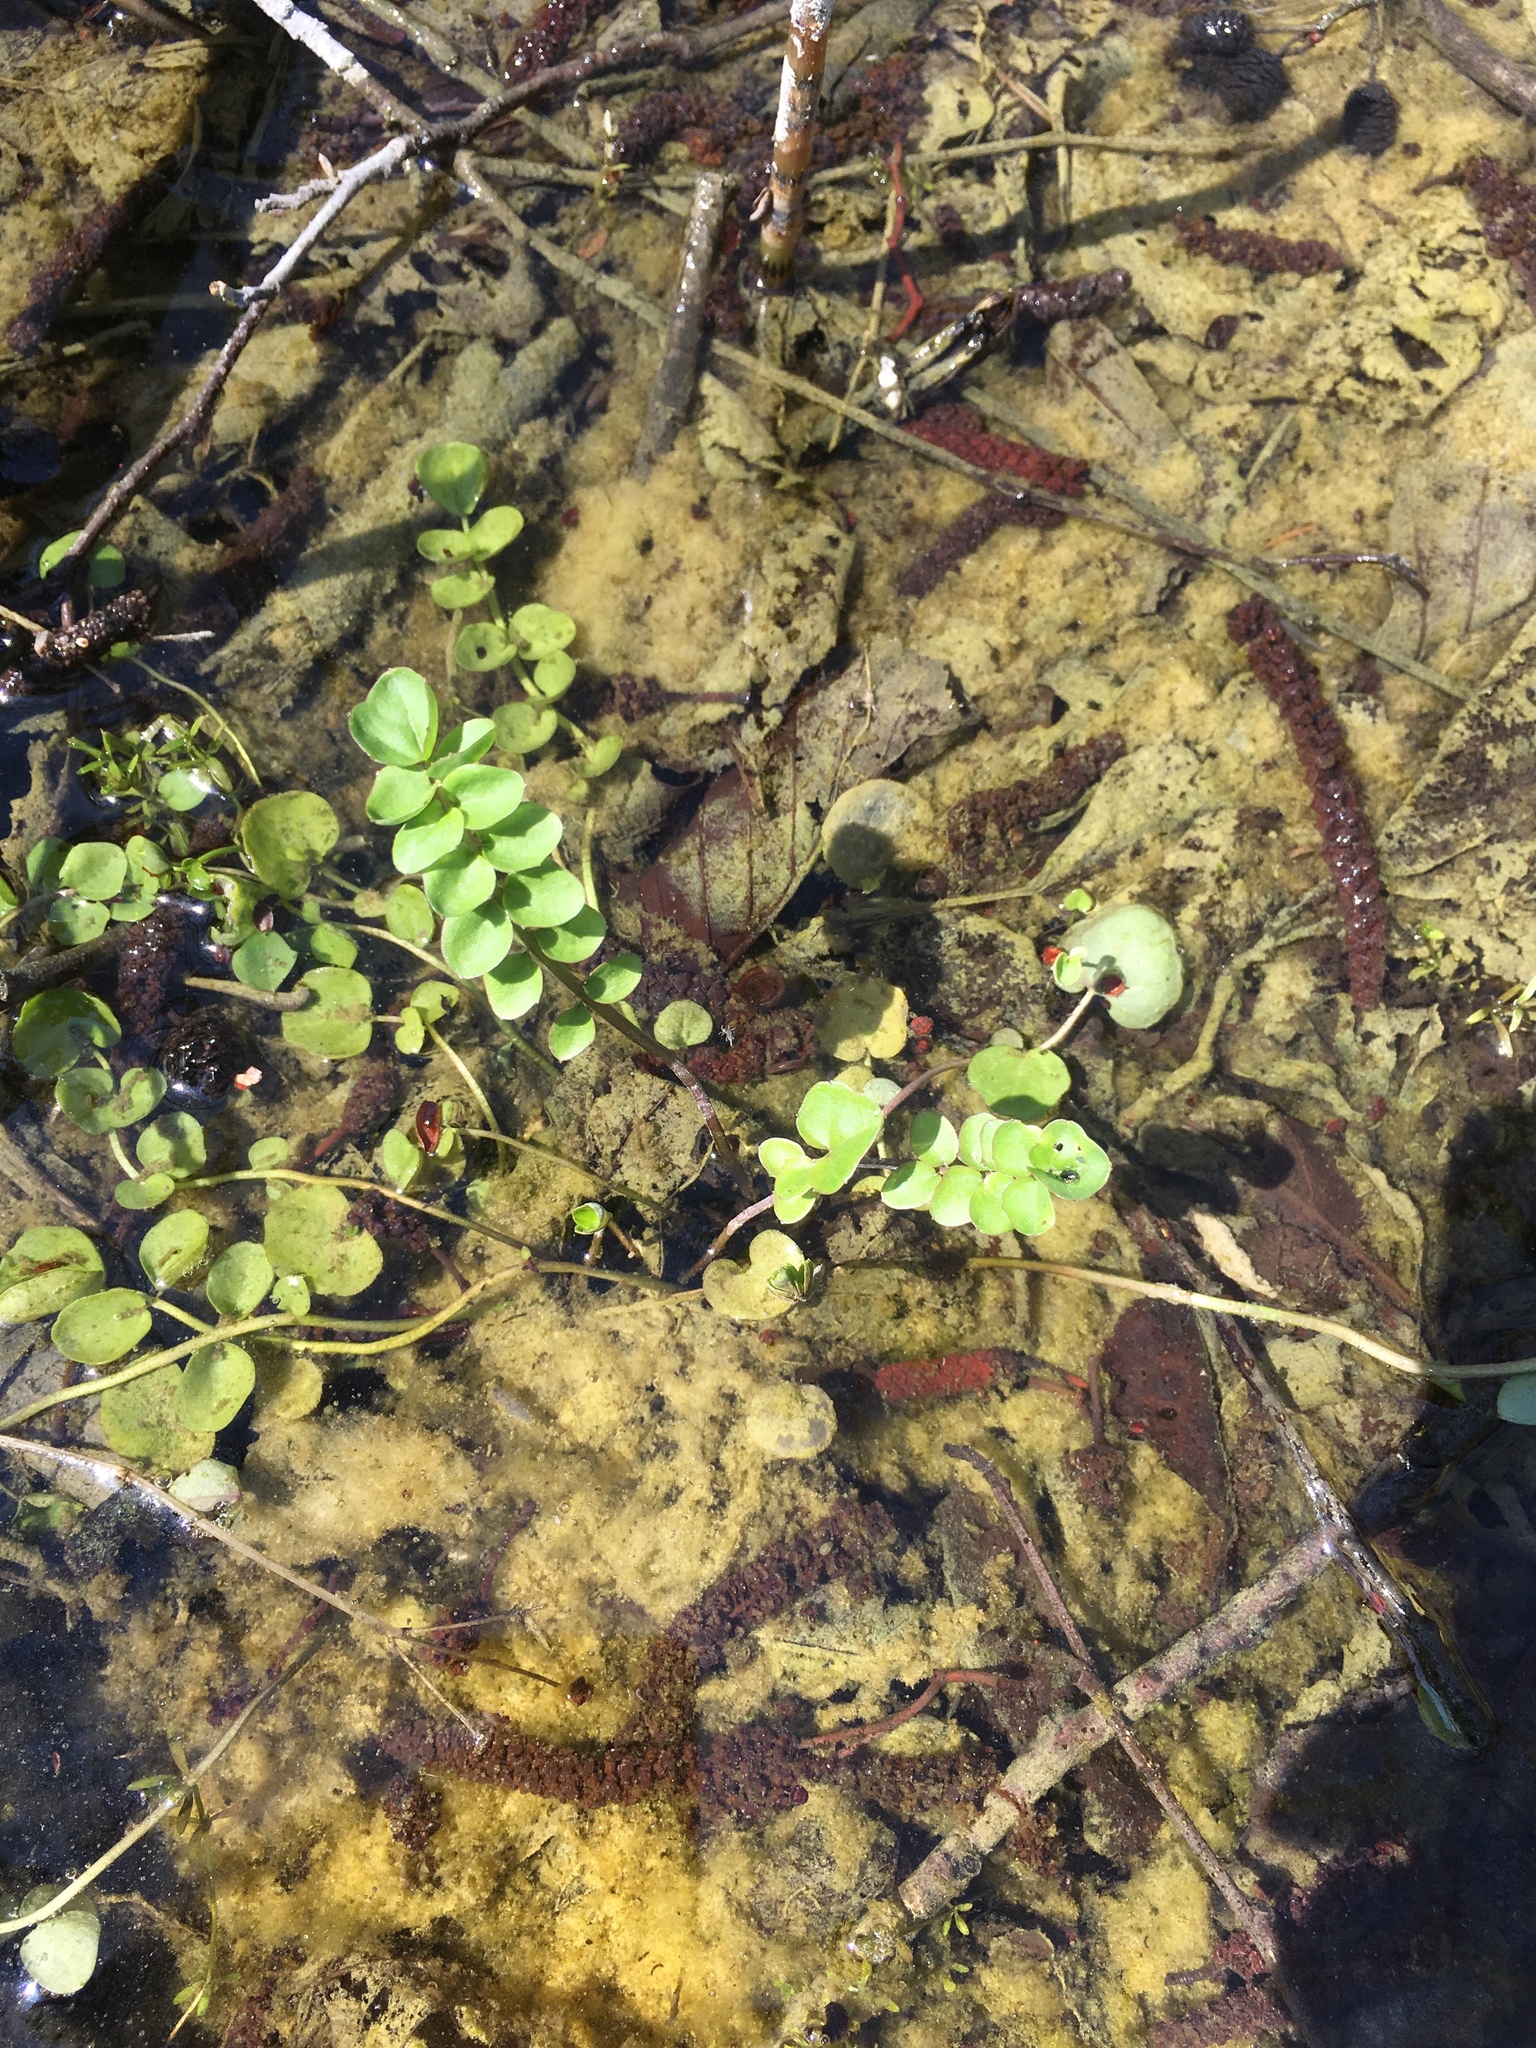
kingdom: Plantae
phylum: Tracheophyta
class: Magnoliopsida
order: Brassicales
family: Brassicaceae
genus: Cardamine
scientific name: Cardamine dentata
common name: Toothed bittercress
